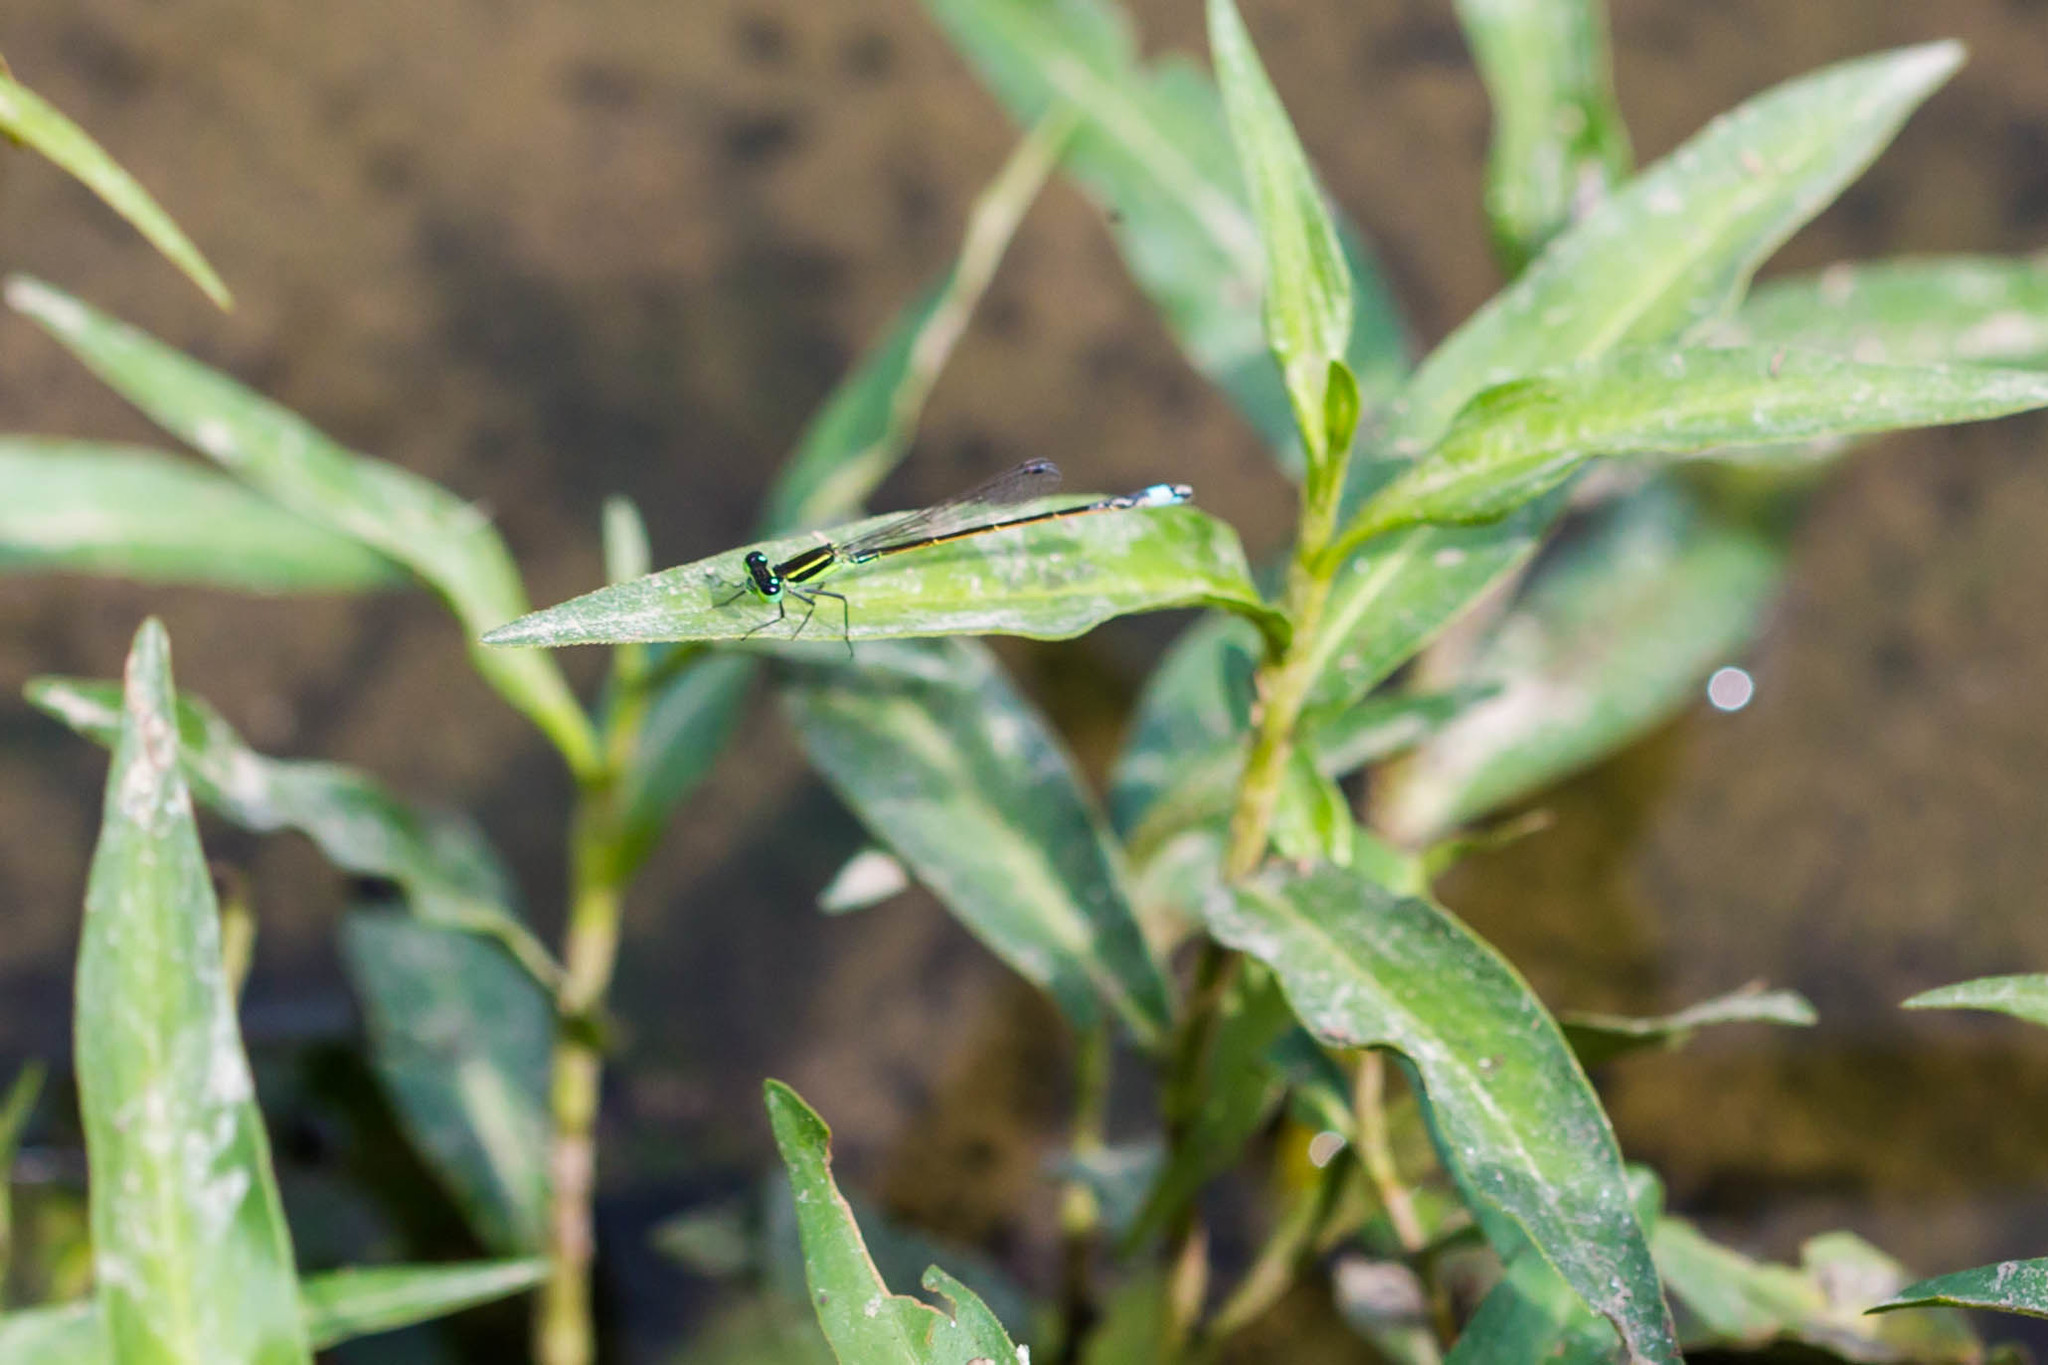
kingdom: Animalia
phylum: Arthropoda
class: Insecta
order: Odonata
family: Coenagrionidae
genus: Ischnura
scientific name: Ischnura ramburii
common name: Rambur's forktail
